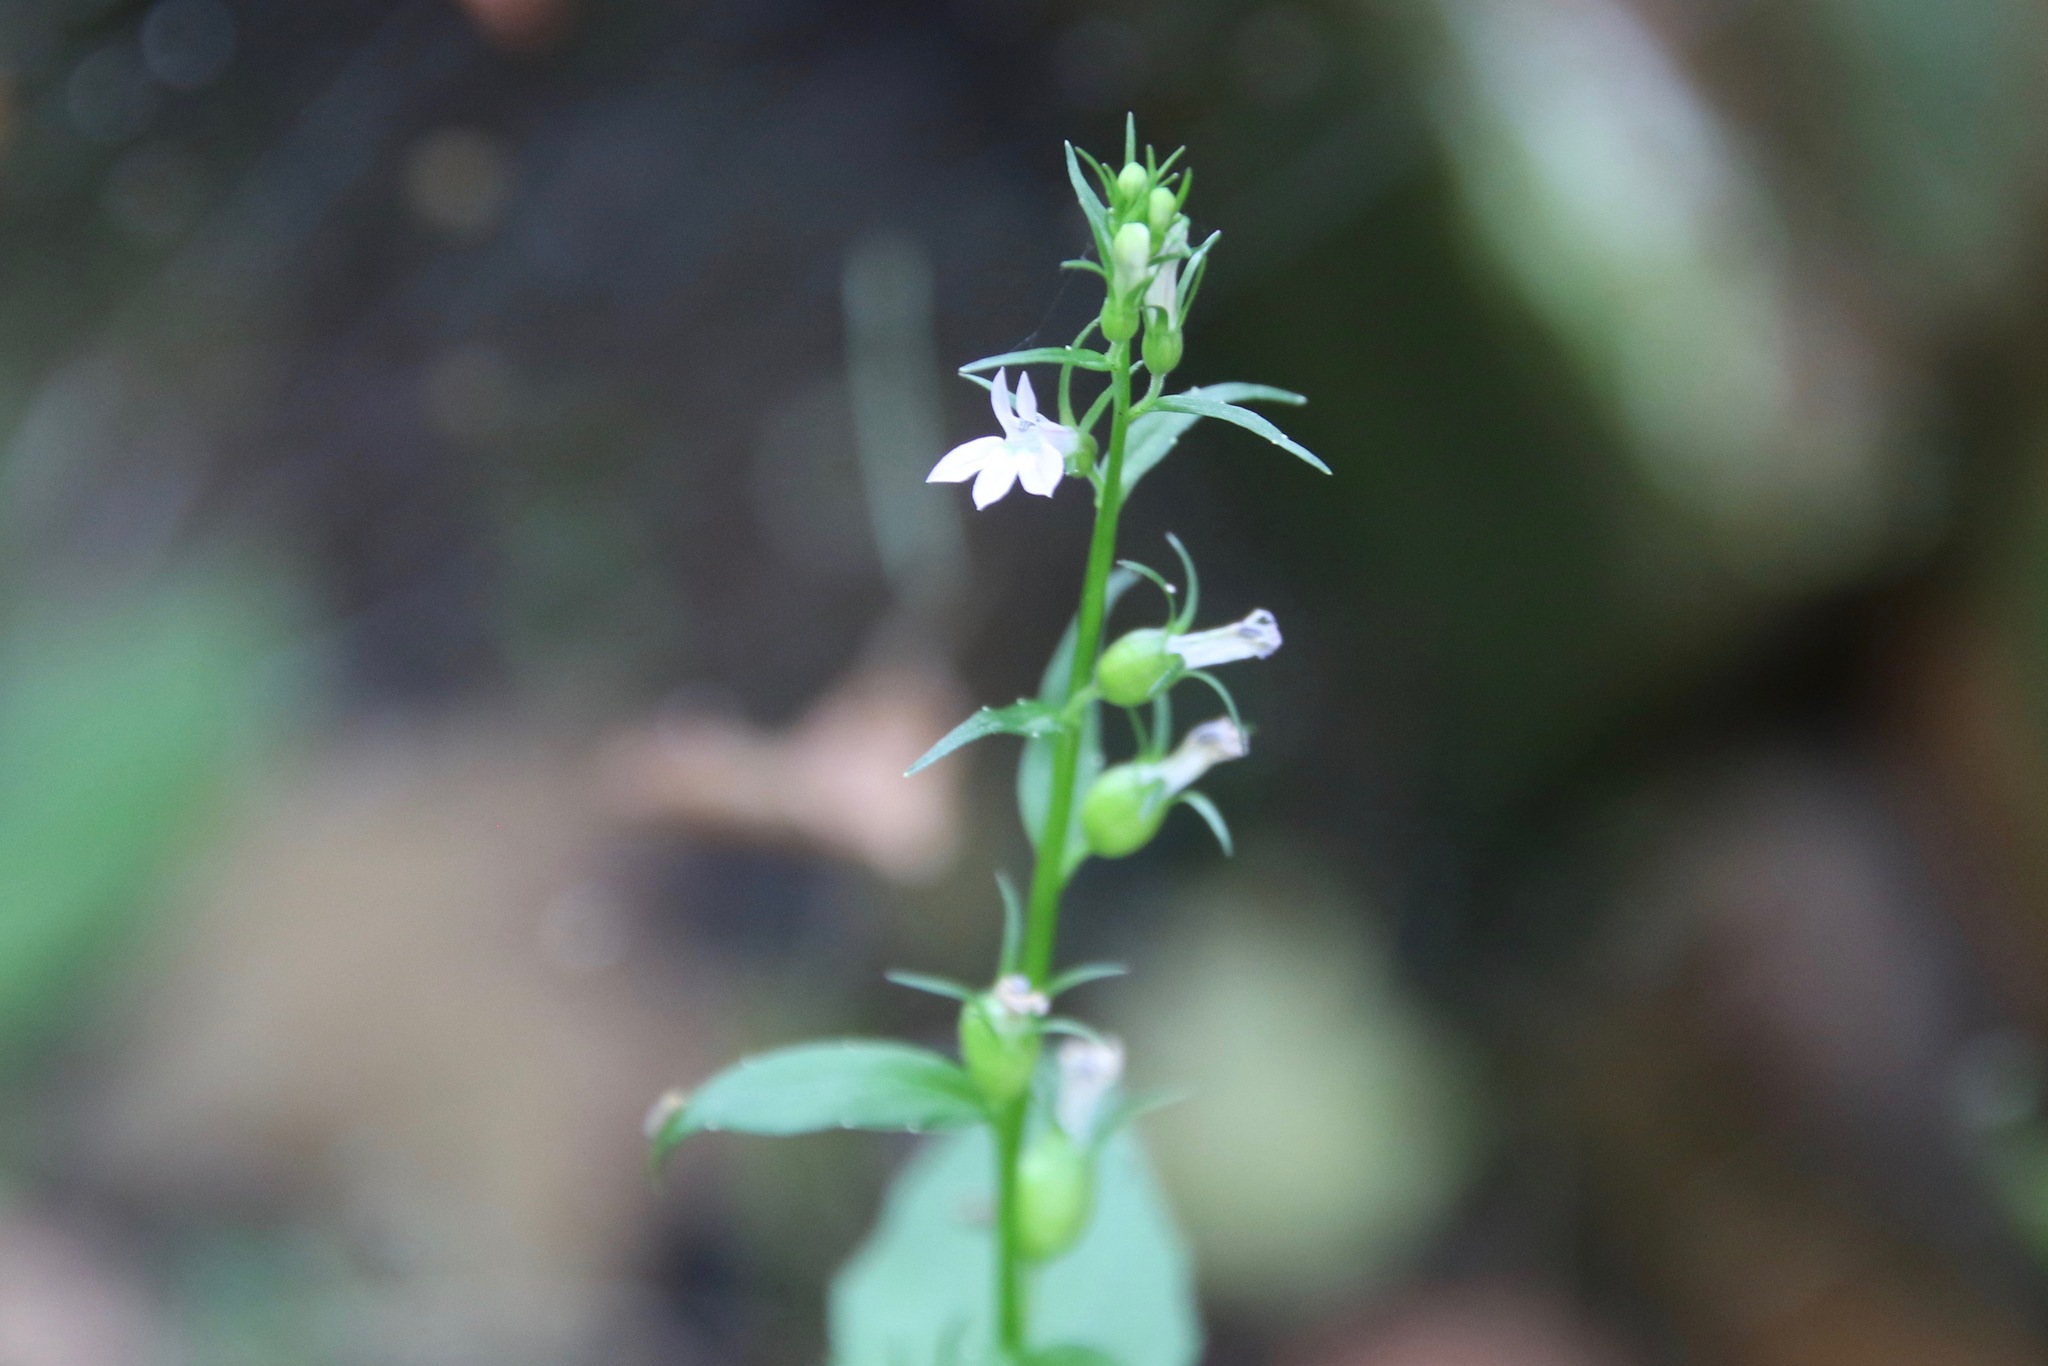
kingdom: Plantae
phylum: Tracheophyta
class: Magnoliopsida
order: Asterales
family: Campanulaceae
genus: Lobelia
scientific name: Lobelia inflata
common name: Indian tobacco
